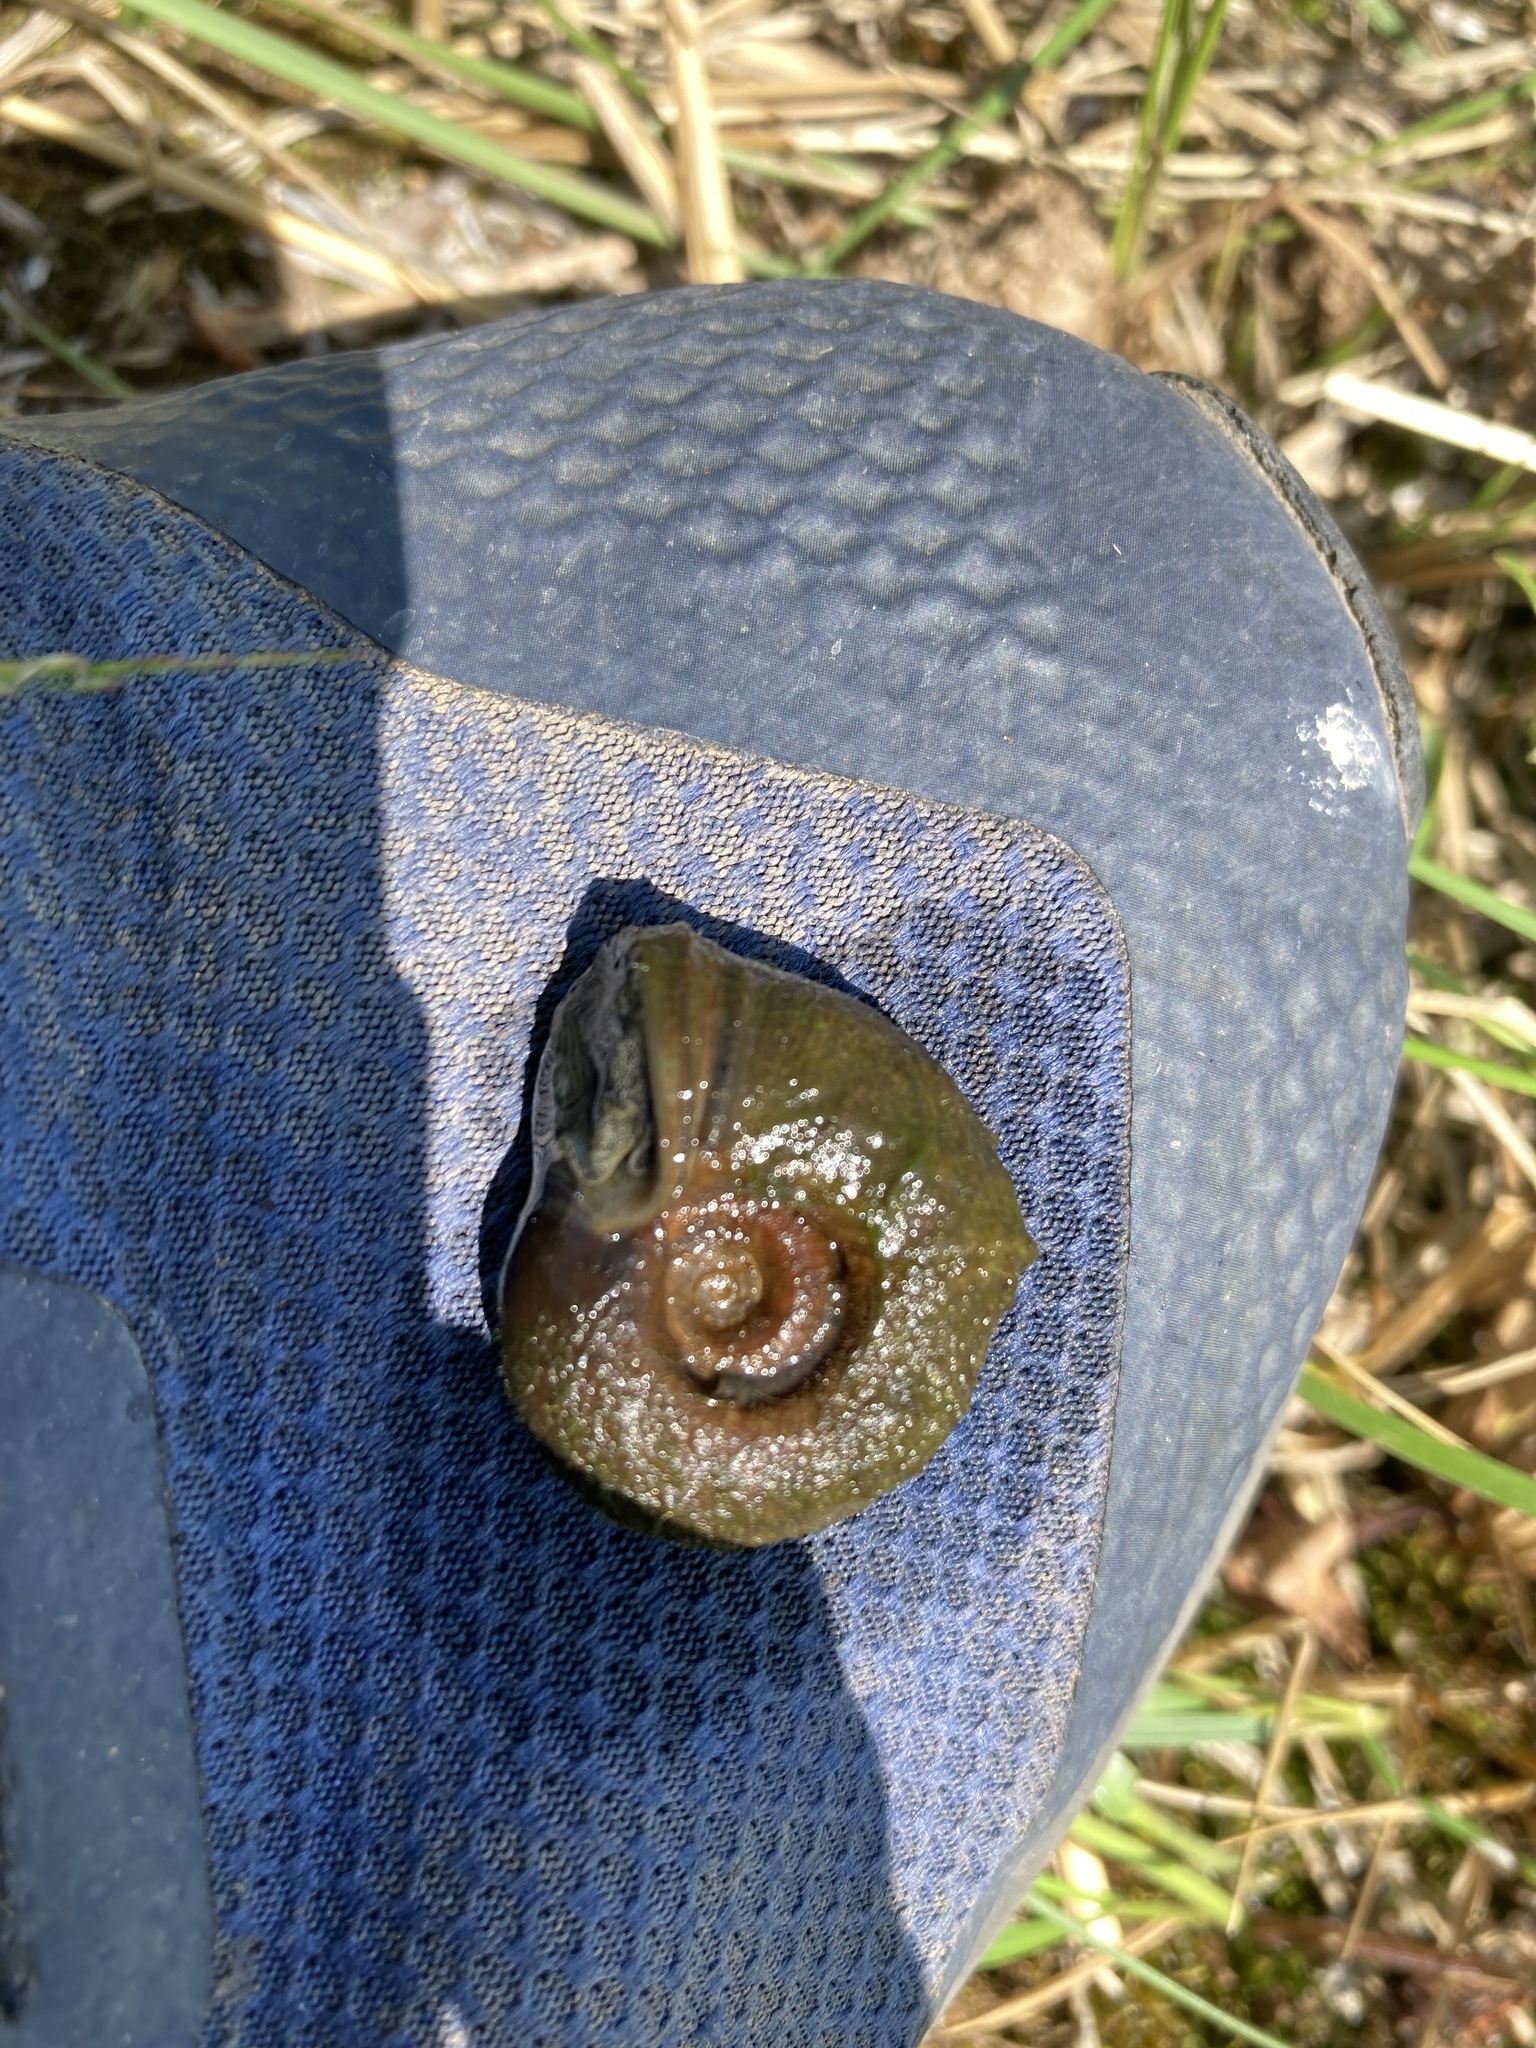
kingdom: Animalia
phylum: Mollusca
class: Gastropoda
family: Planorbidae
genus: Planorbella
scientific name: Planorbella trivolvis
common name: Marsh rams-horn
